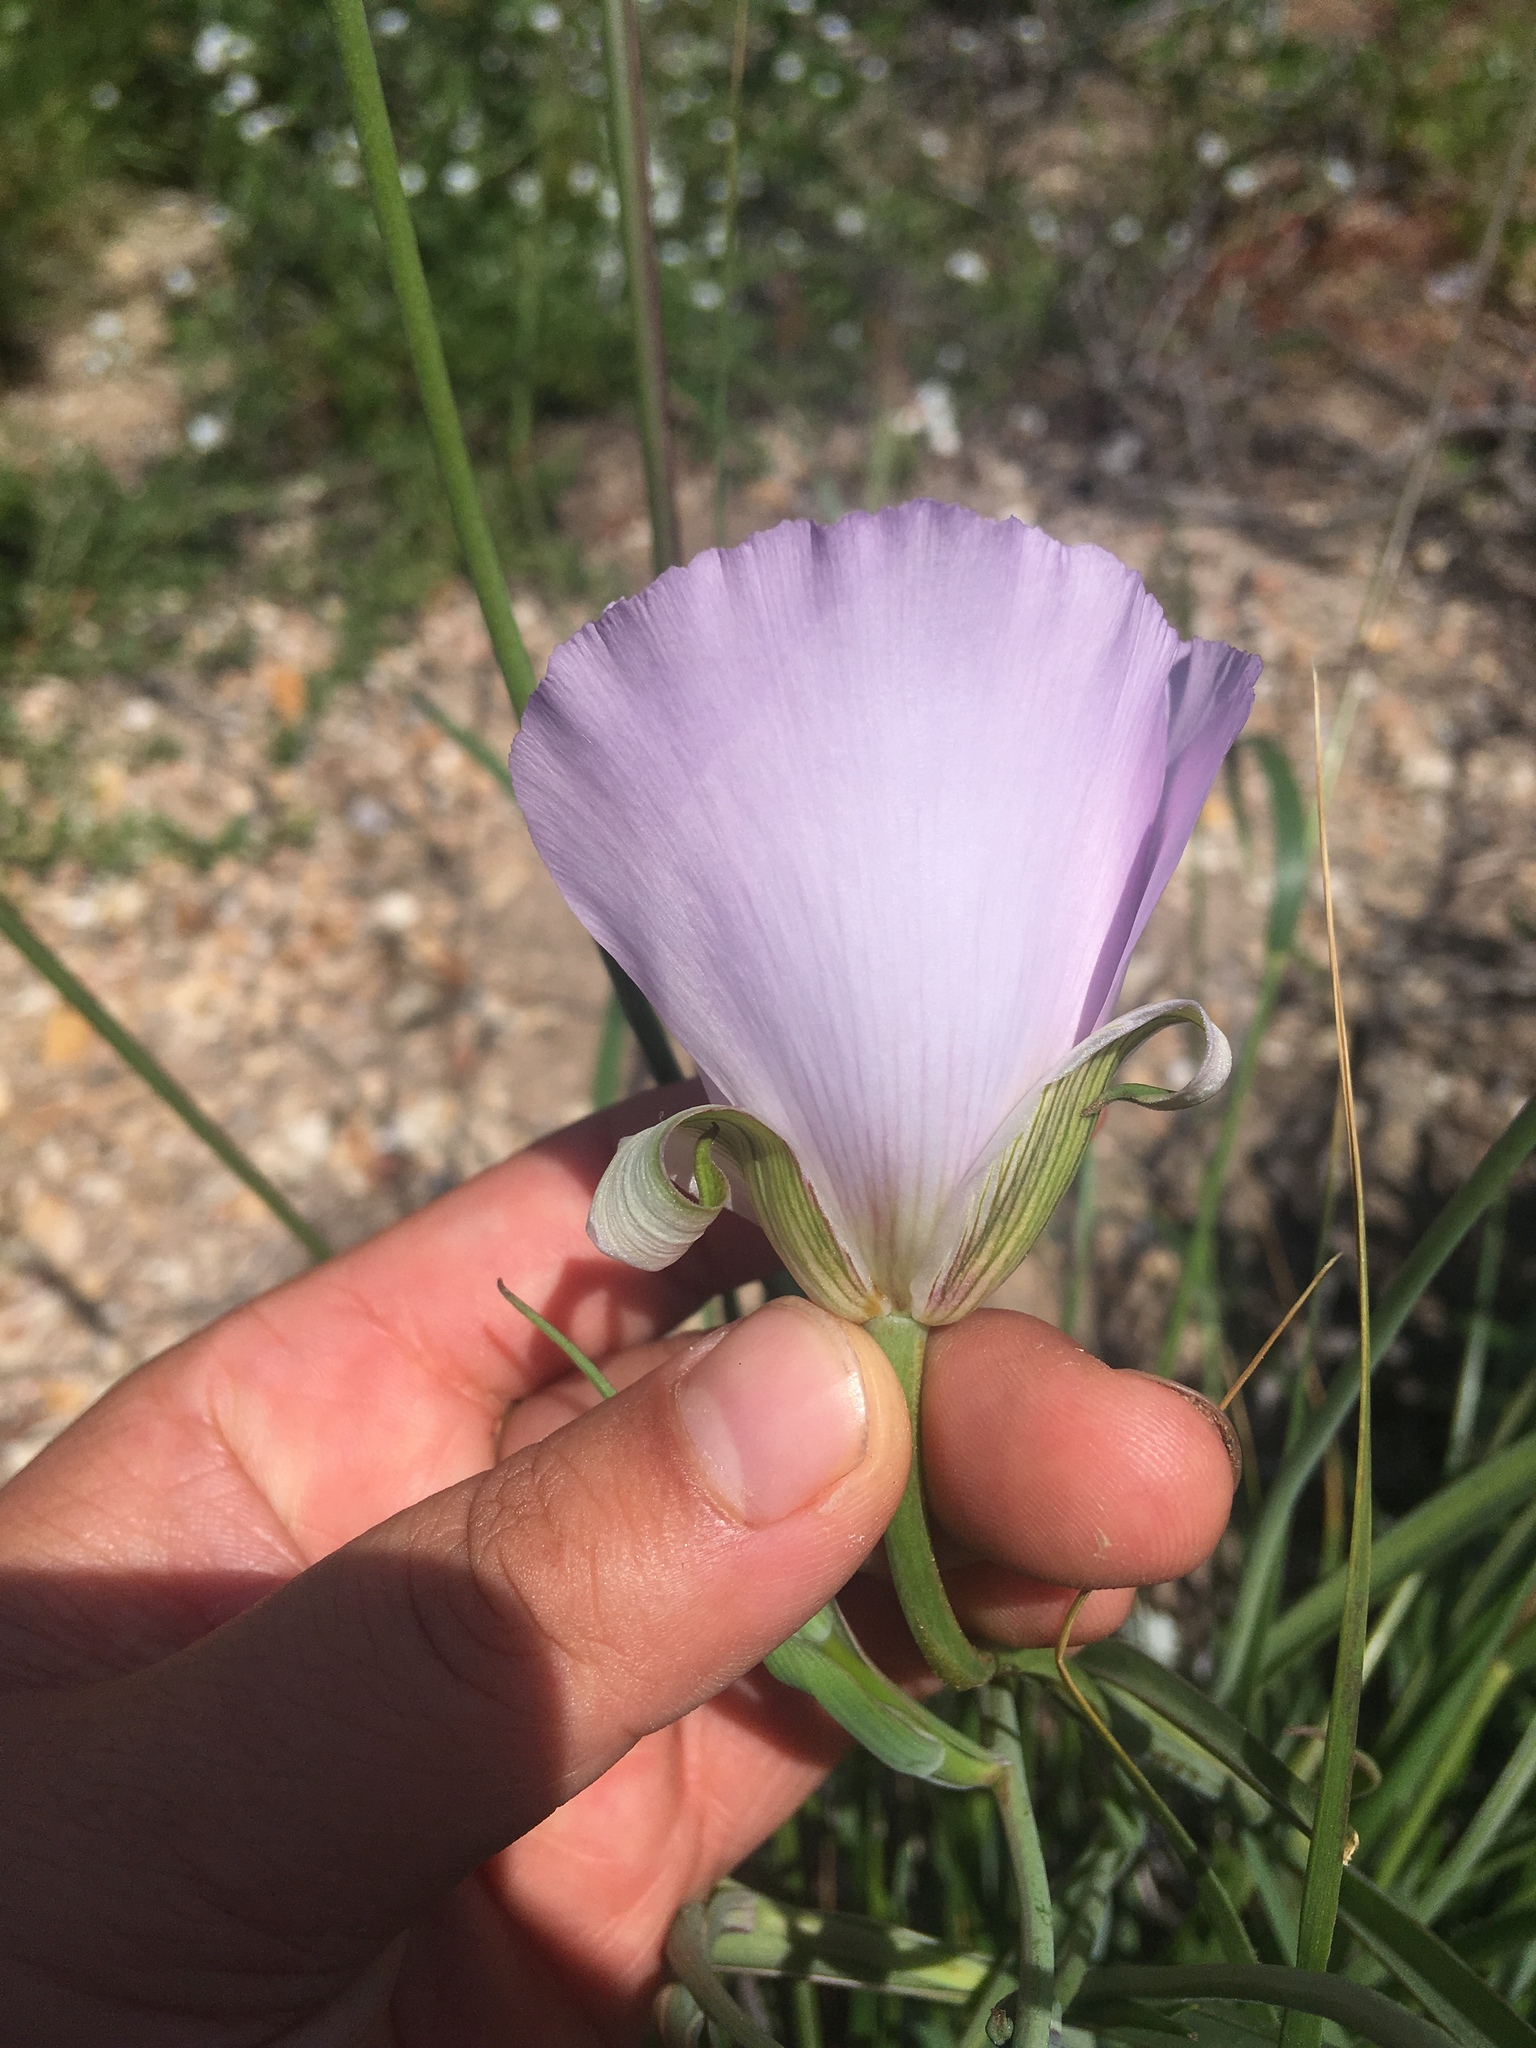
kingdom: Plantae
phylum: Tracheophyta
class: Liliopsida
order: Liliales
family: Liliaceae
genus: Calochortus
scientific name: Calochortus splendens
